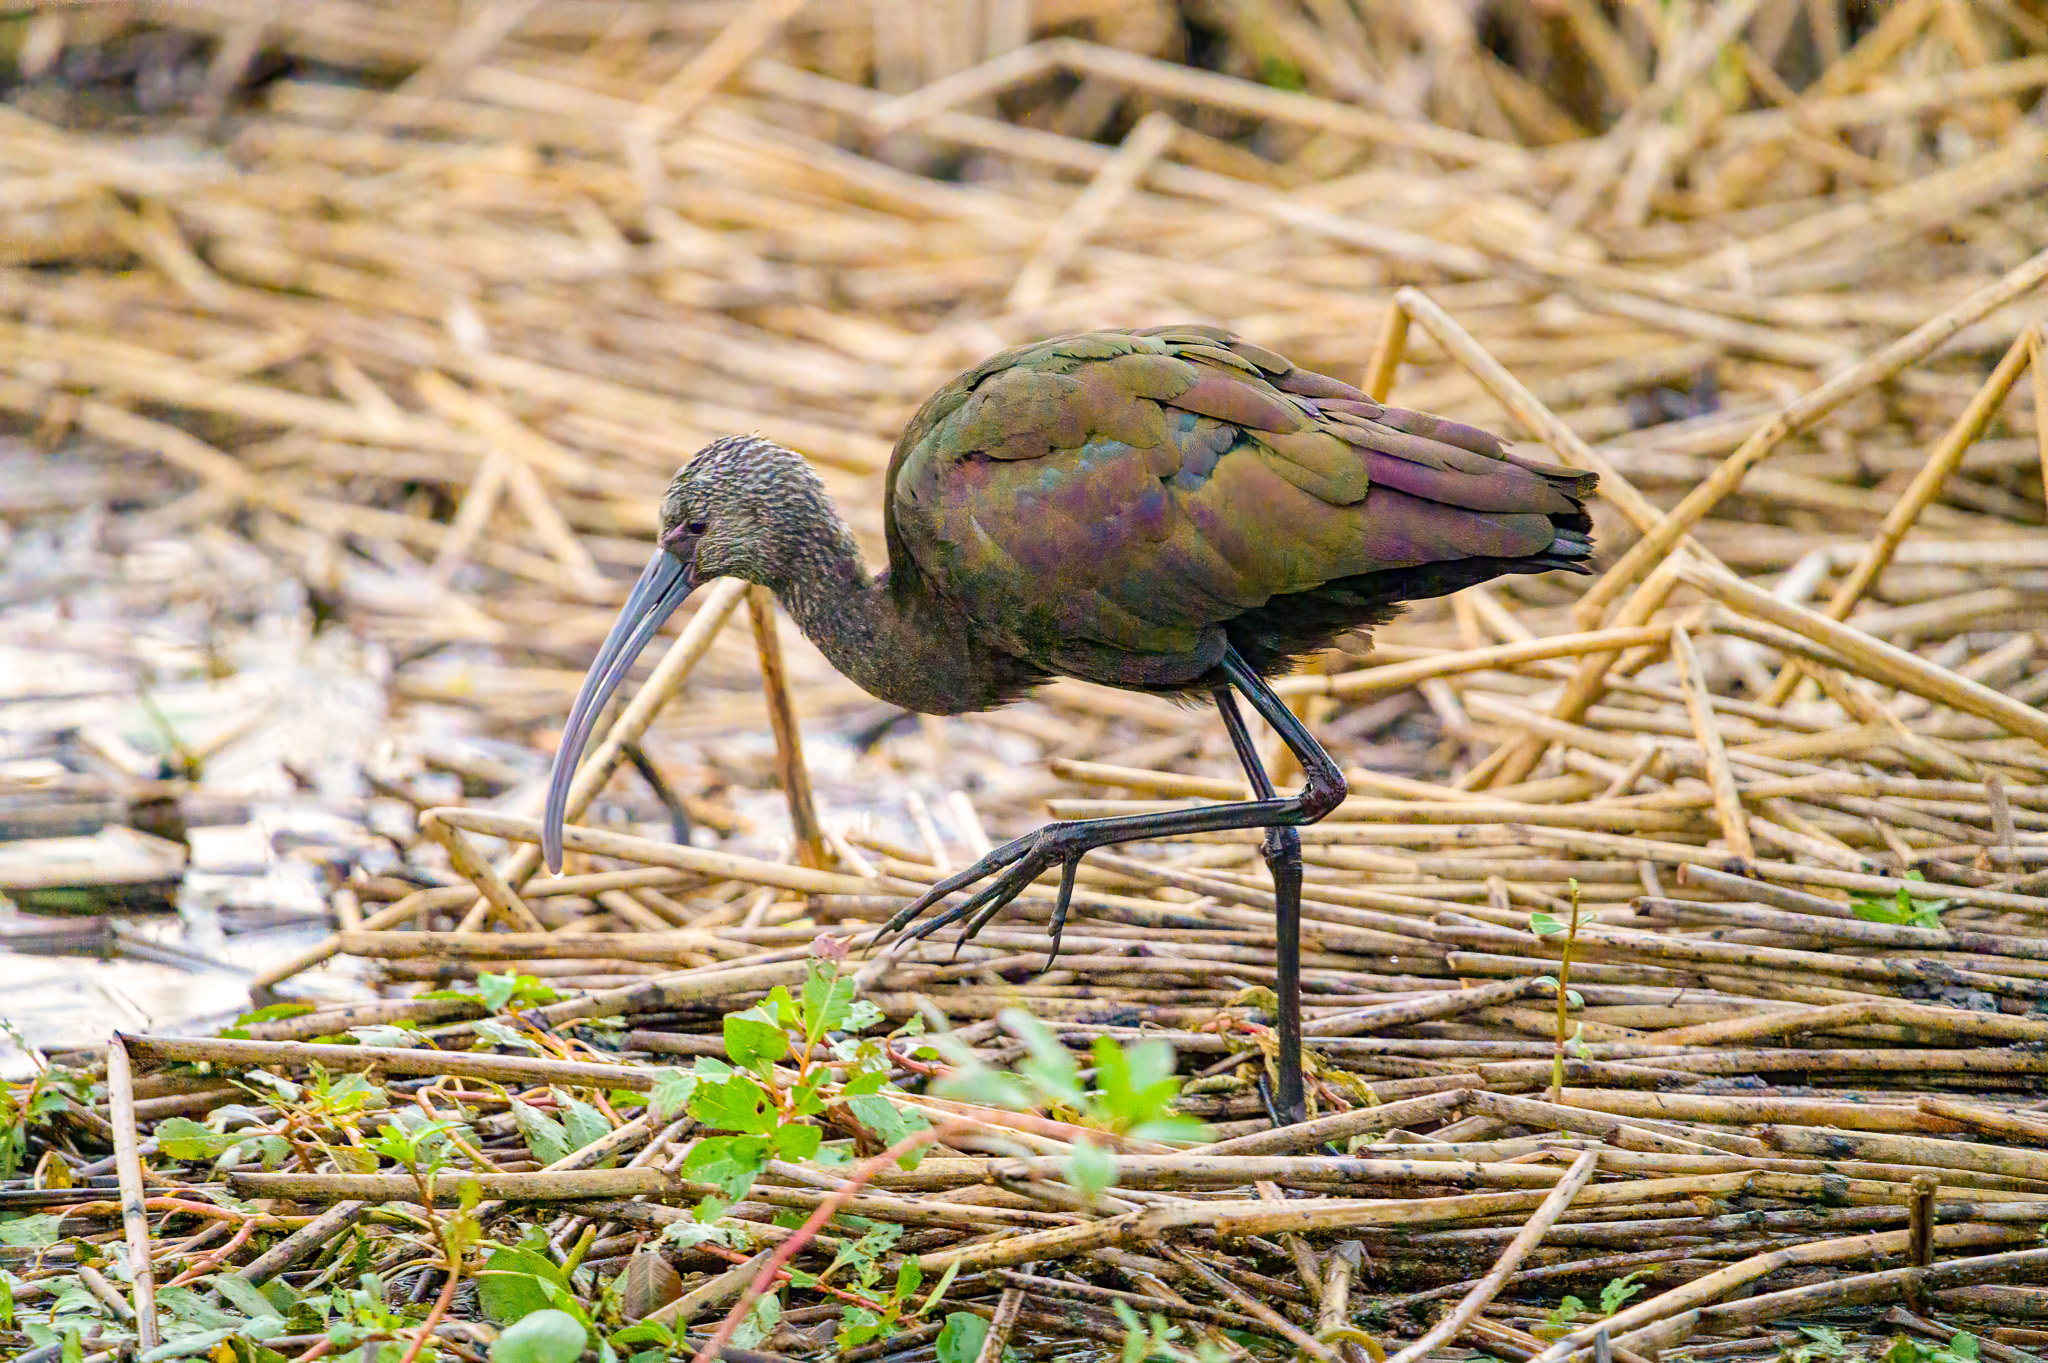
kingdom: Animalia
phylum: Chordata
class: Aves
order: Pelecaniformes
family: Threskiornithidae
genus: Plegadis
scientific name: Plegadis chihi
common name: White-faced ibis
